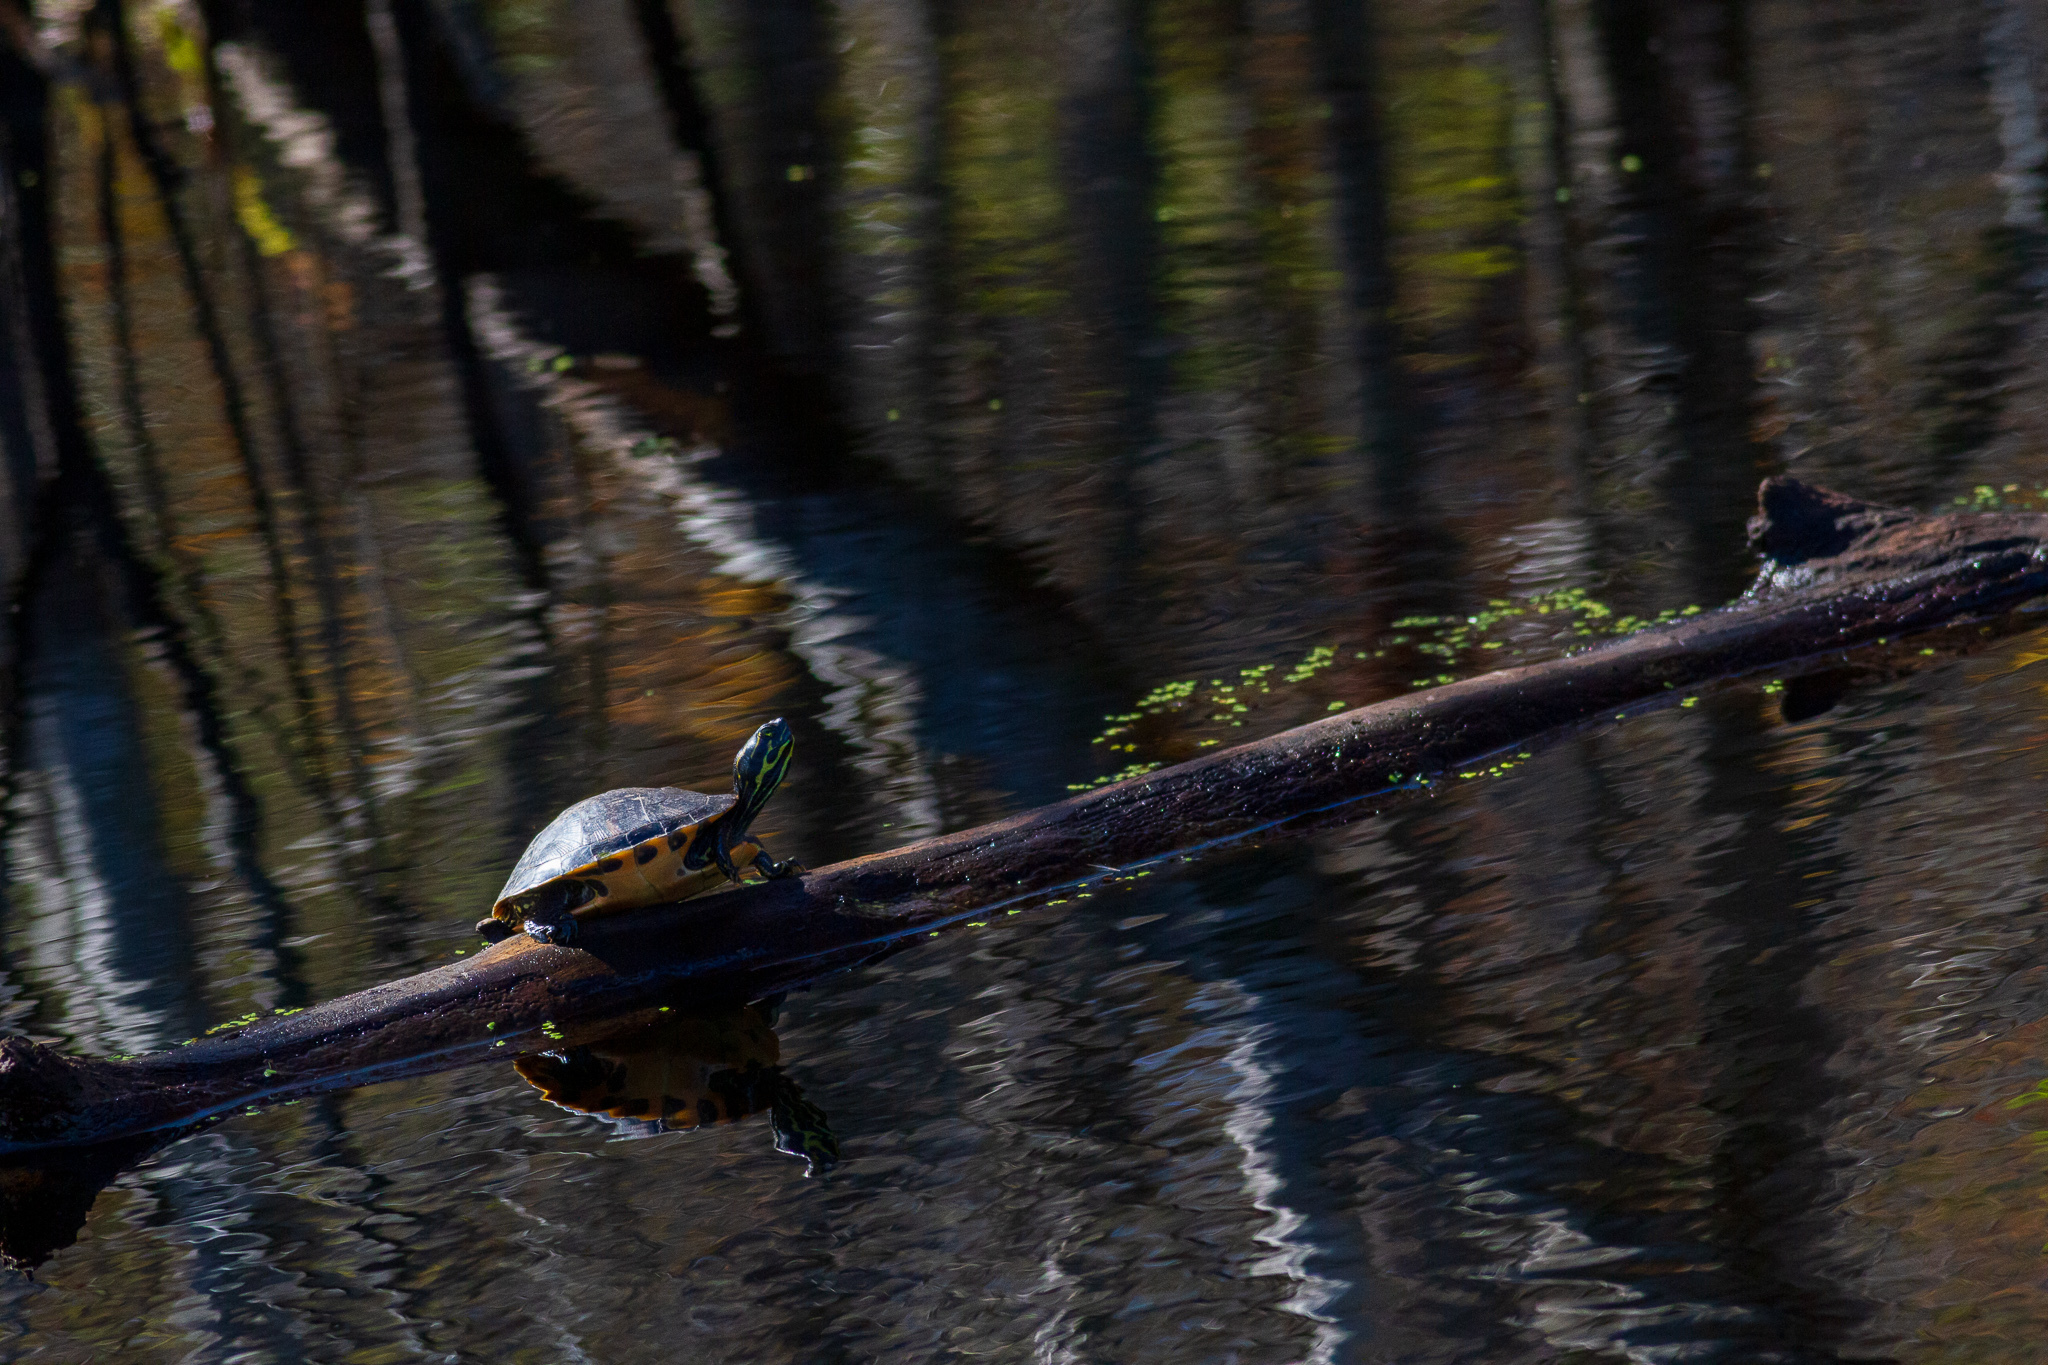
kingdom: Animalia
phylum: Chordata
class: Testudines
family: Emydidae
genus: Pseudemys
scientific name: Pseudemys concinna
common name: Eastern river cooter
